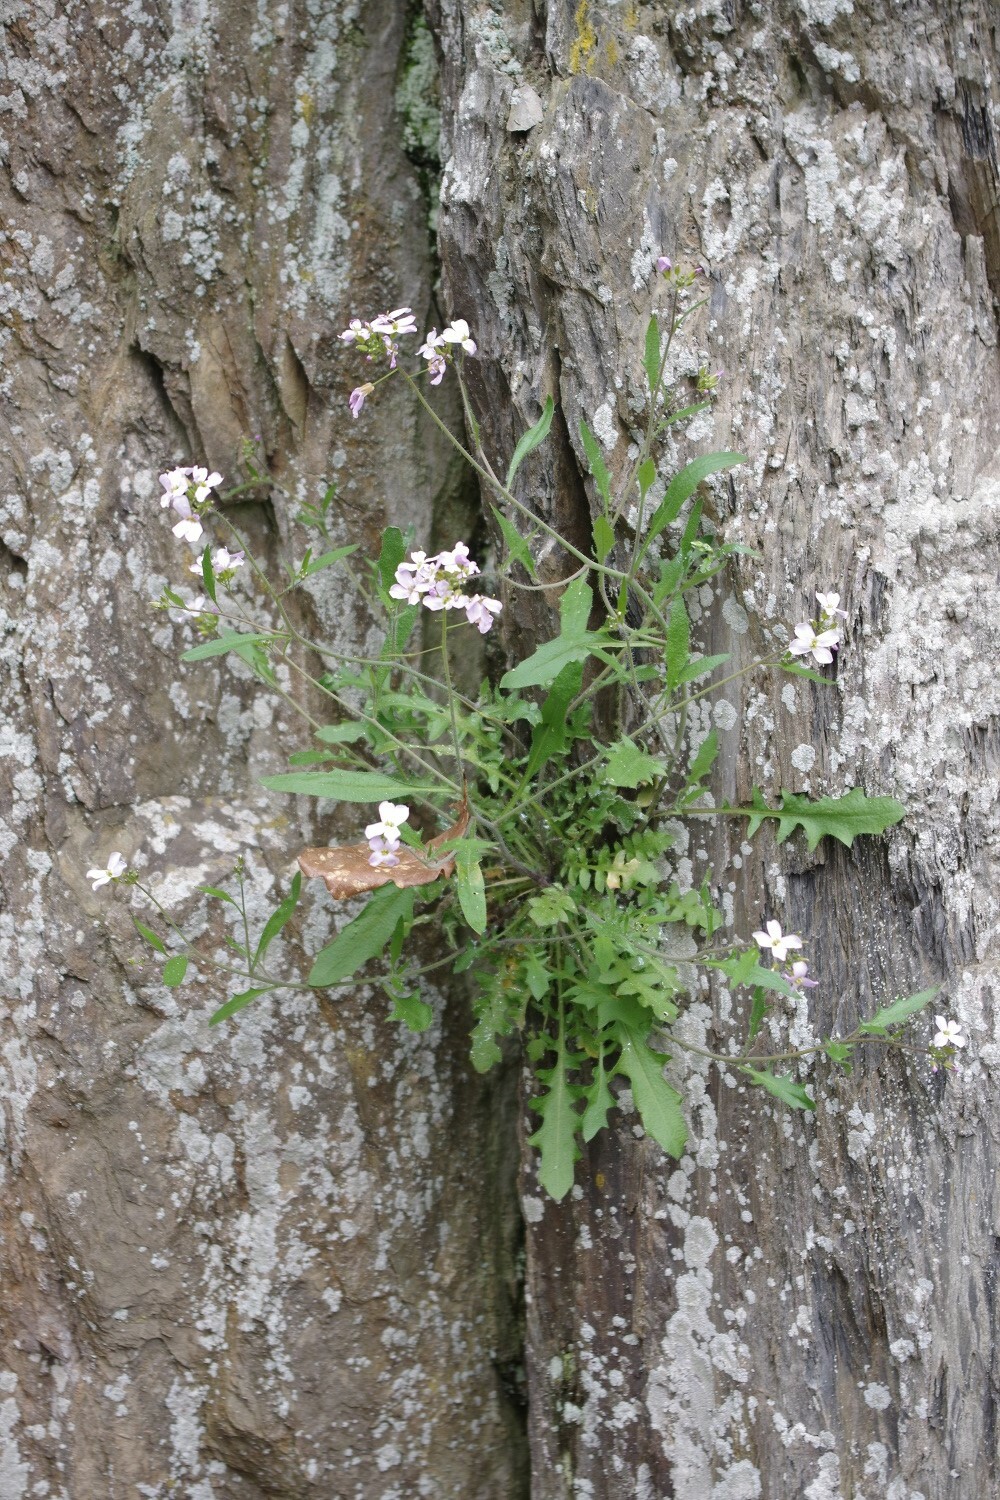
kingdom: Plantae
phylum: Tracheophyta
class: Magnoliopsida
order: Brassicales
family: Brassicaceae
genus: Arabidopsis
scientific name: Arabidopsis arenosa
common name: Sand rock-cress
